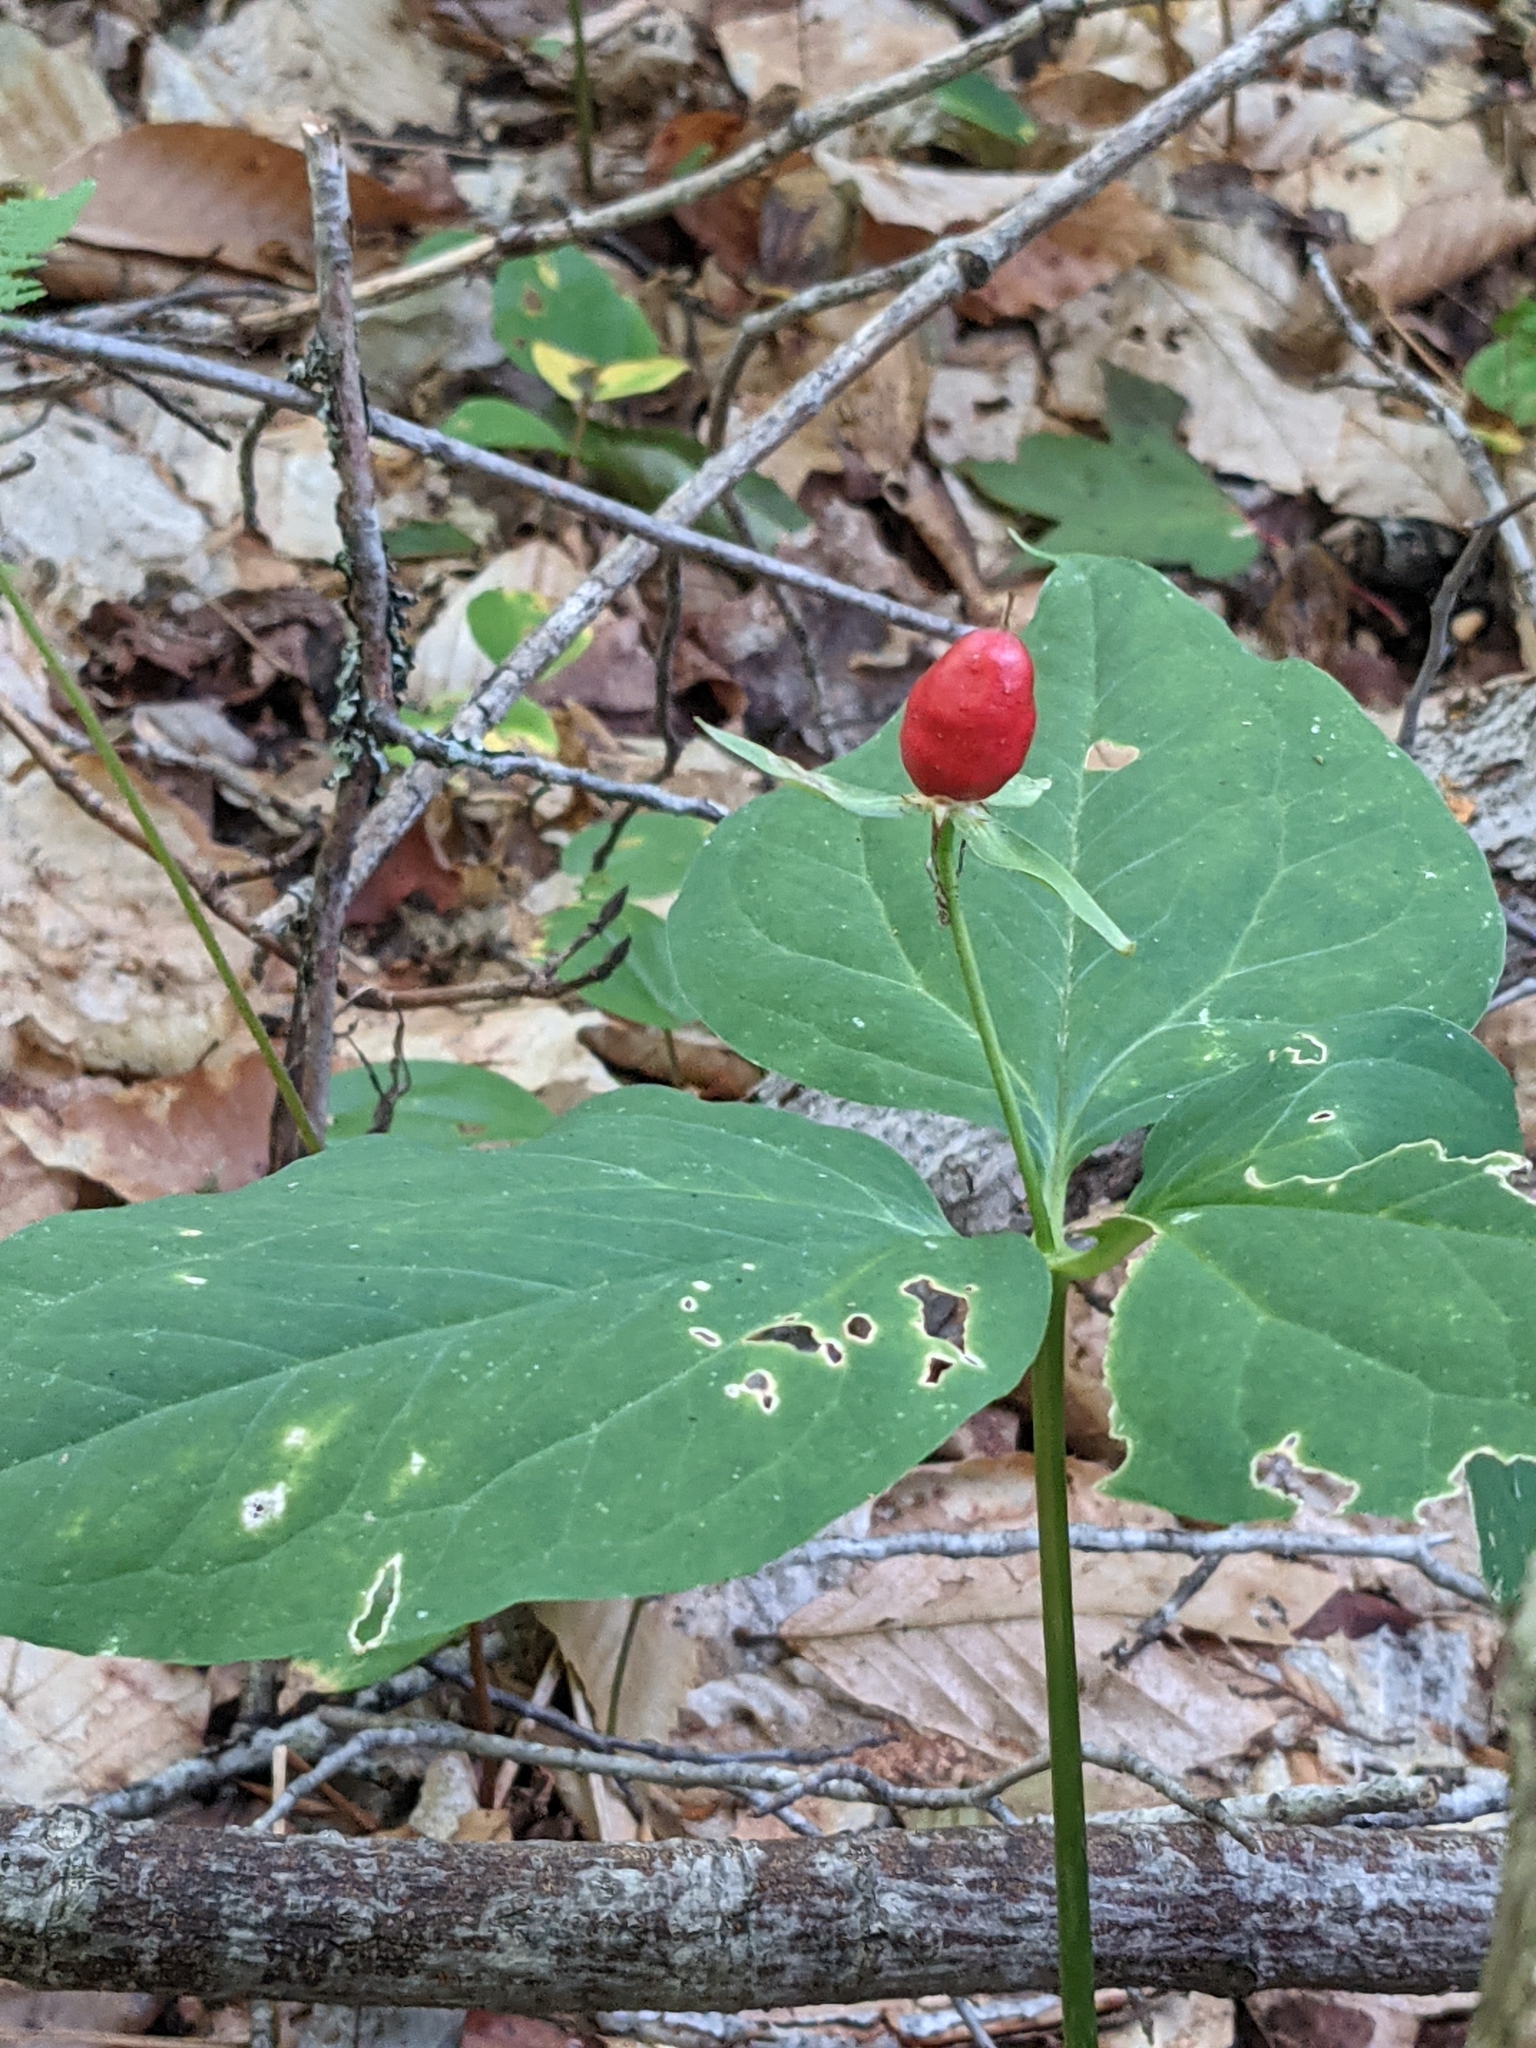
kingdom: Plantae
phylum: Tracheophyta
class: Liliopsida
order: Liliales
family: Melanthiaceae
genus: Trillium
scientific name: Trillium undulatum
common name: Paint trillium
